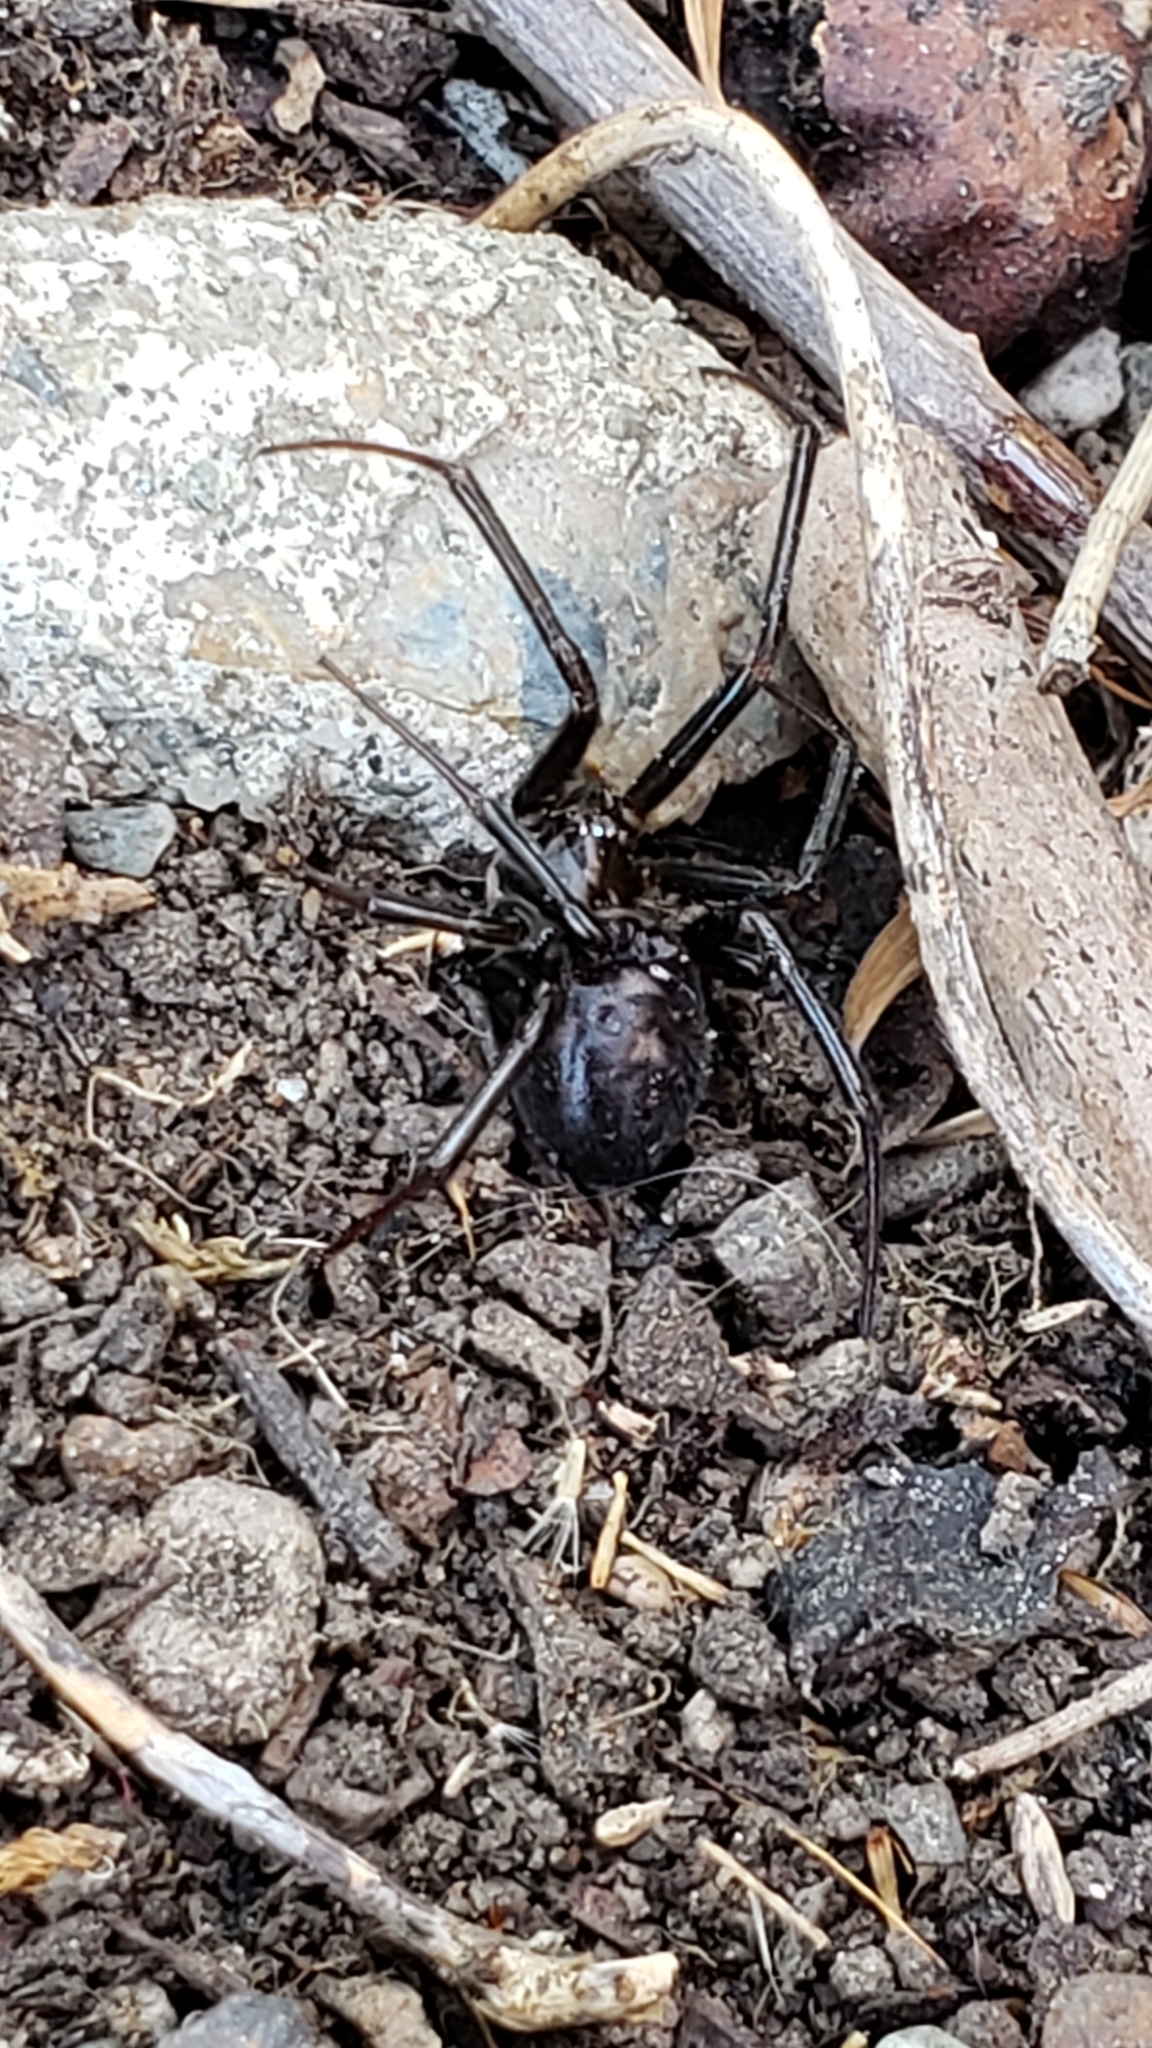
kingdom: Animalia
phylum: Arthropoda
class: Arachnida
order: Araneae
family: Theridiidae
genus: Steatoda
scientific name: Steatoda grossa
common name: False black widow
